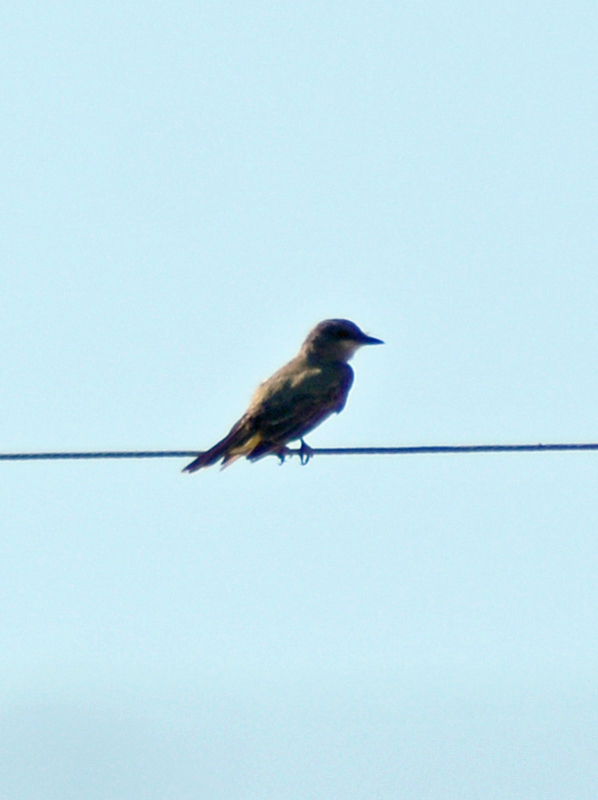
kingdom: Animalia
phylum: Chordata
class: Aves
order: Passeriformes
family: Tyrannidae
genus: Tyrannus
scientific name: Tyrannus vociferans
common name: Cassin's kingbird
